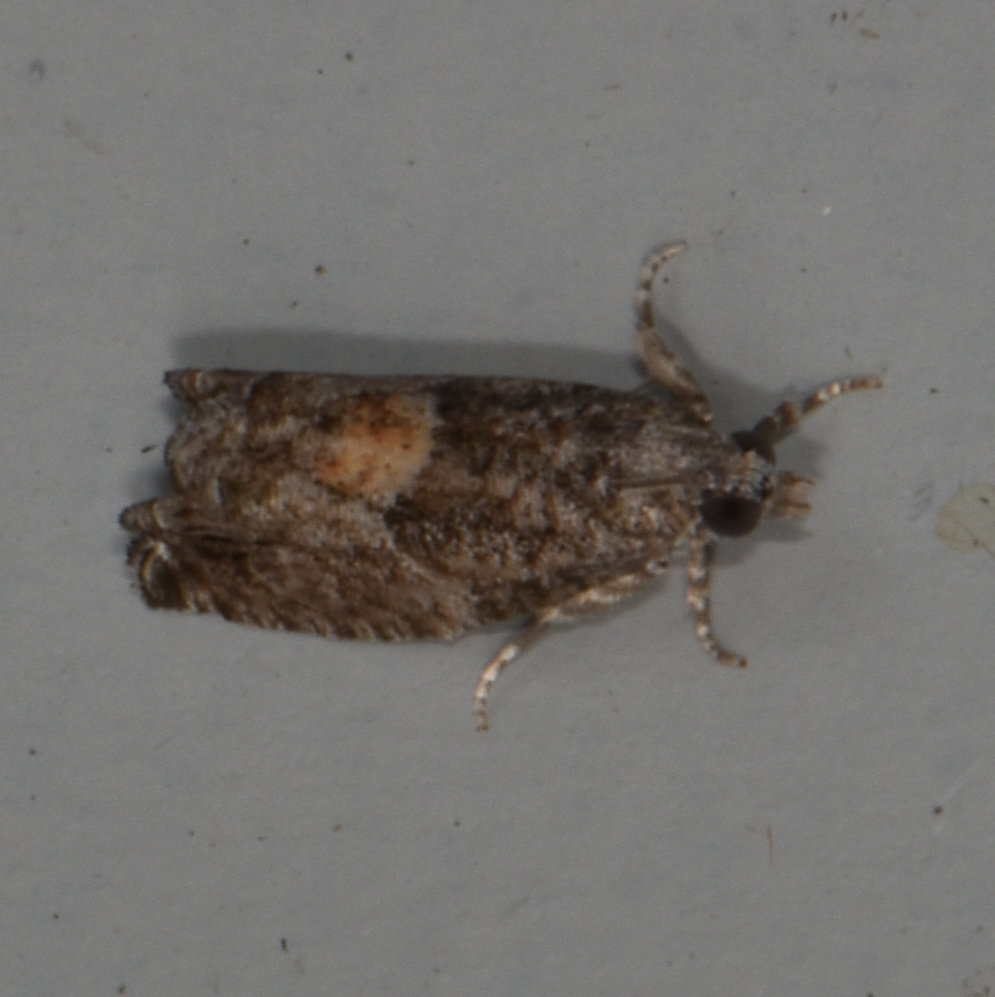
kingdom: Animalia
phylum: Arthropoda
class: Insecta
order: Lepidoptera
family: Tortricidae
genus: Epinotia
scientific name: Epinotia nisella
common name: Grey poplar bell
